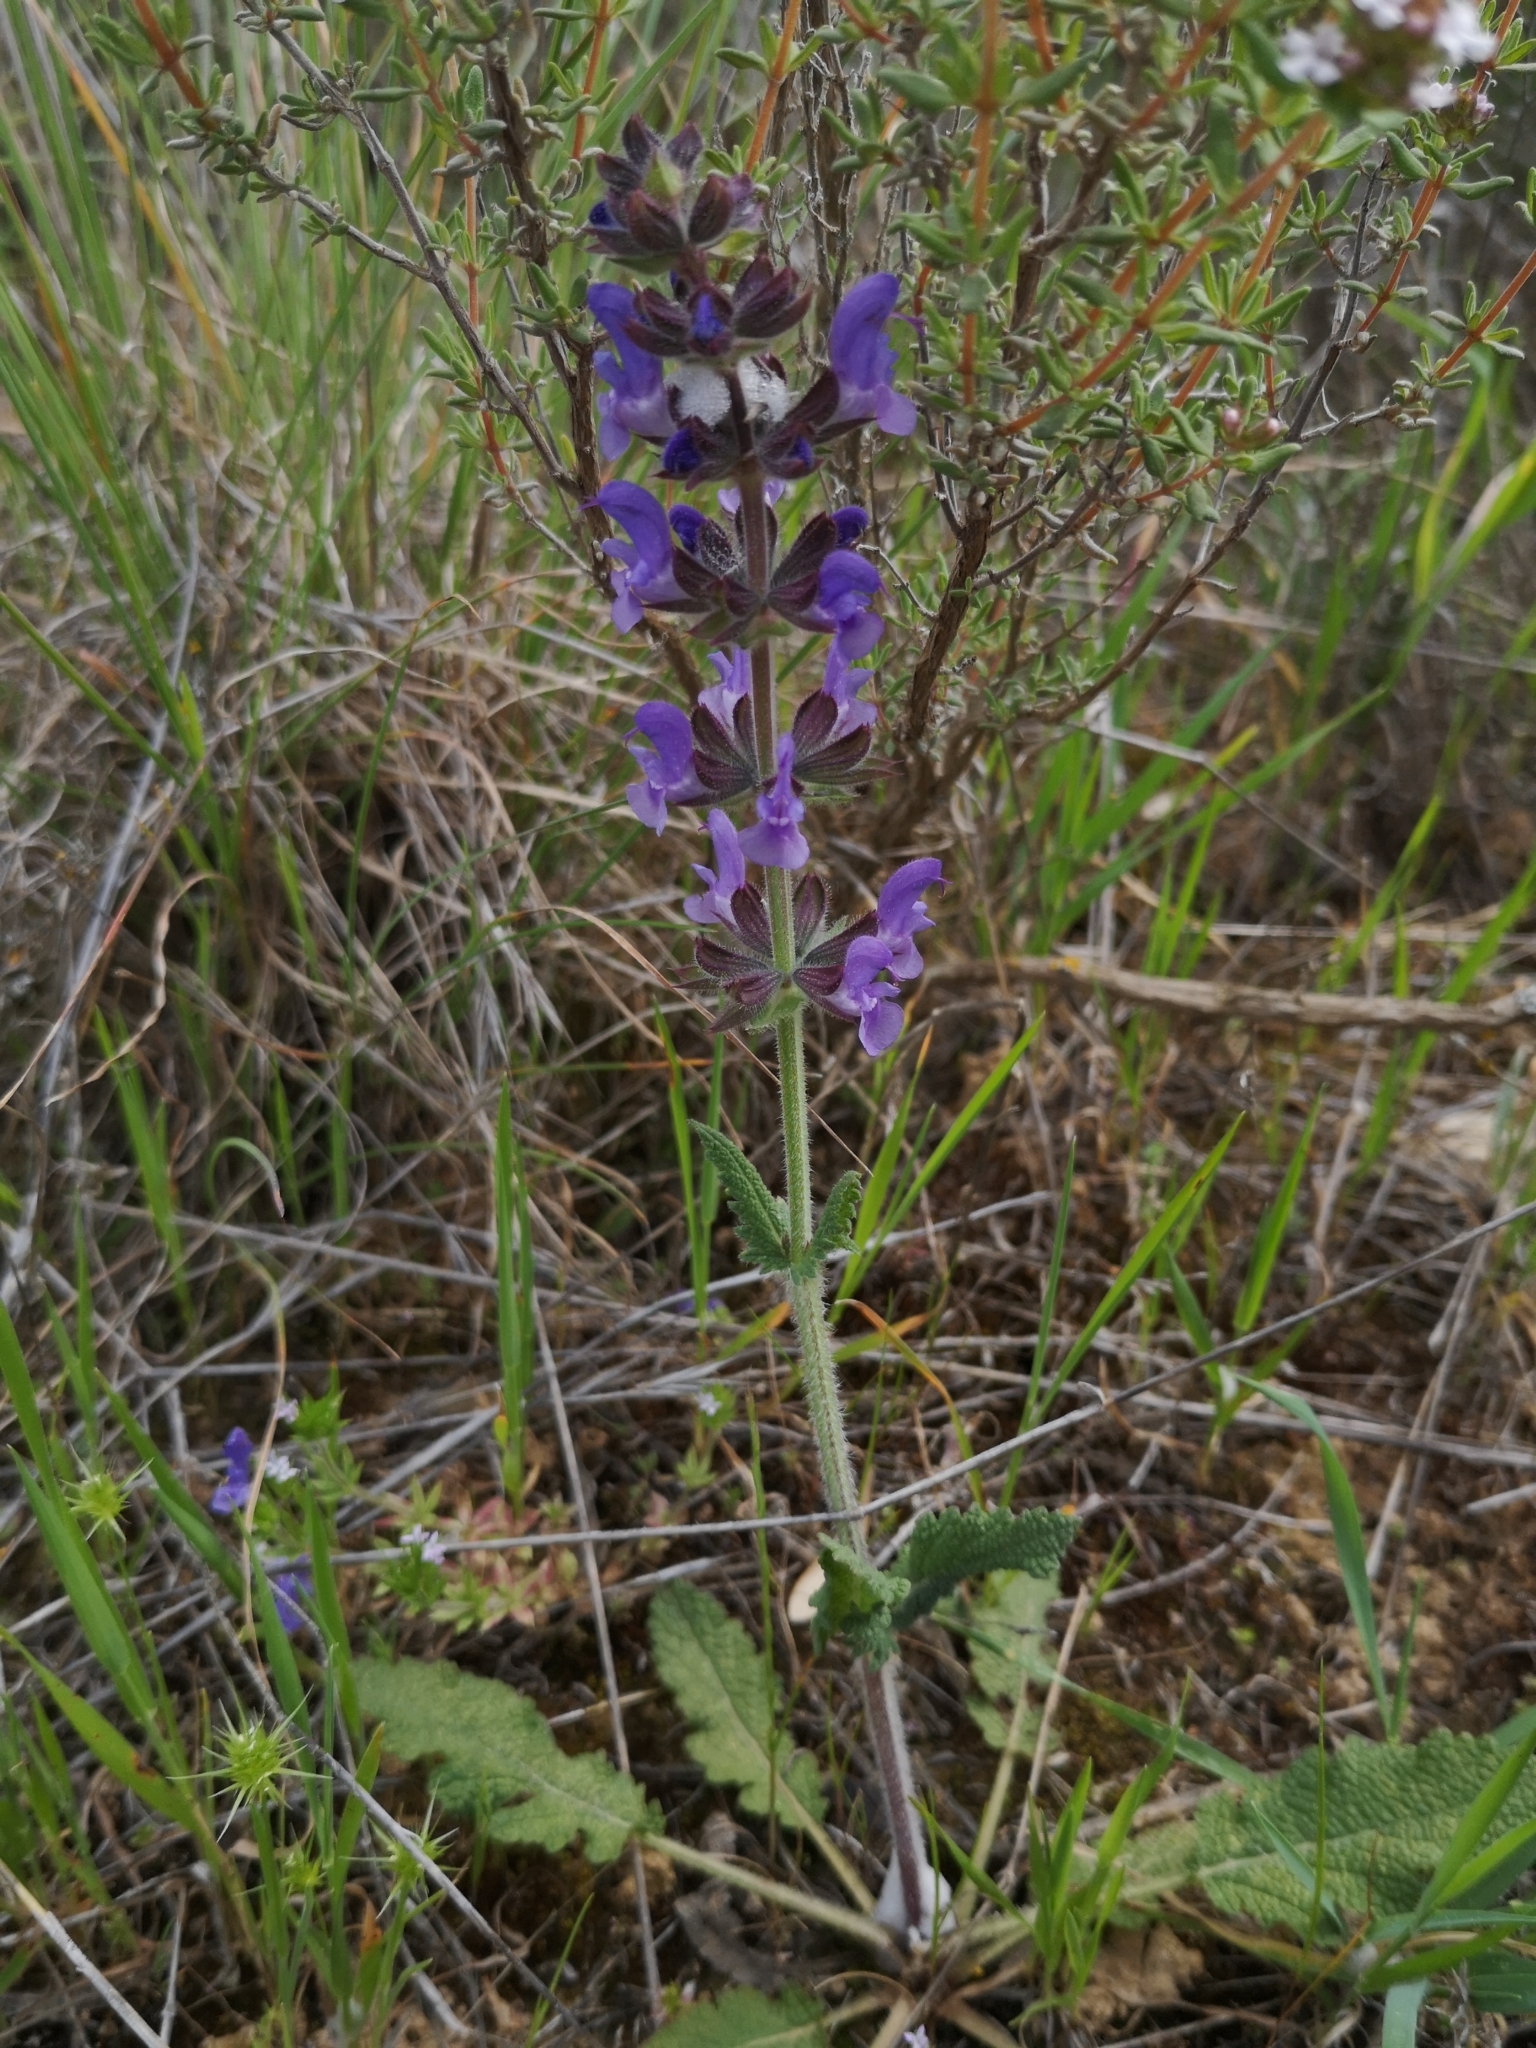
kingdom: Plantae
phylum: Tracheophyta
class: Magnoliopsida
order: Lamiales
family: Lamiaceae
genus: Salvia
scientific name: Salvia verbenaca
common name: Wild clary
